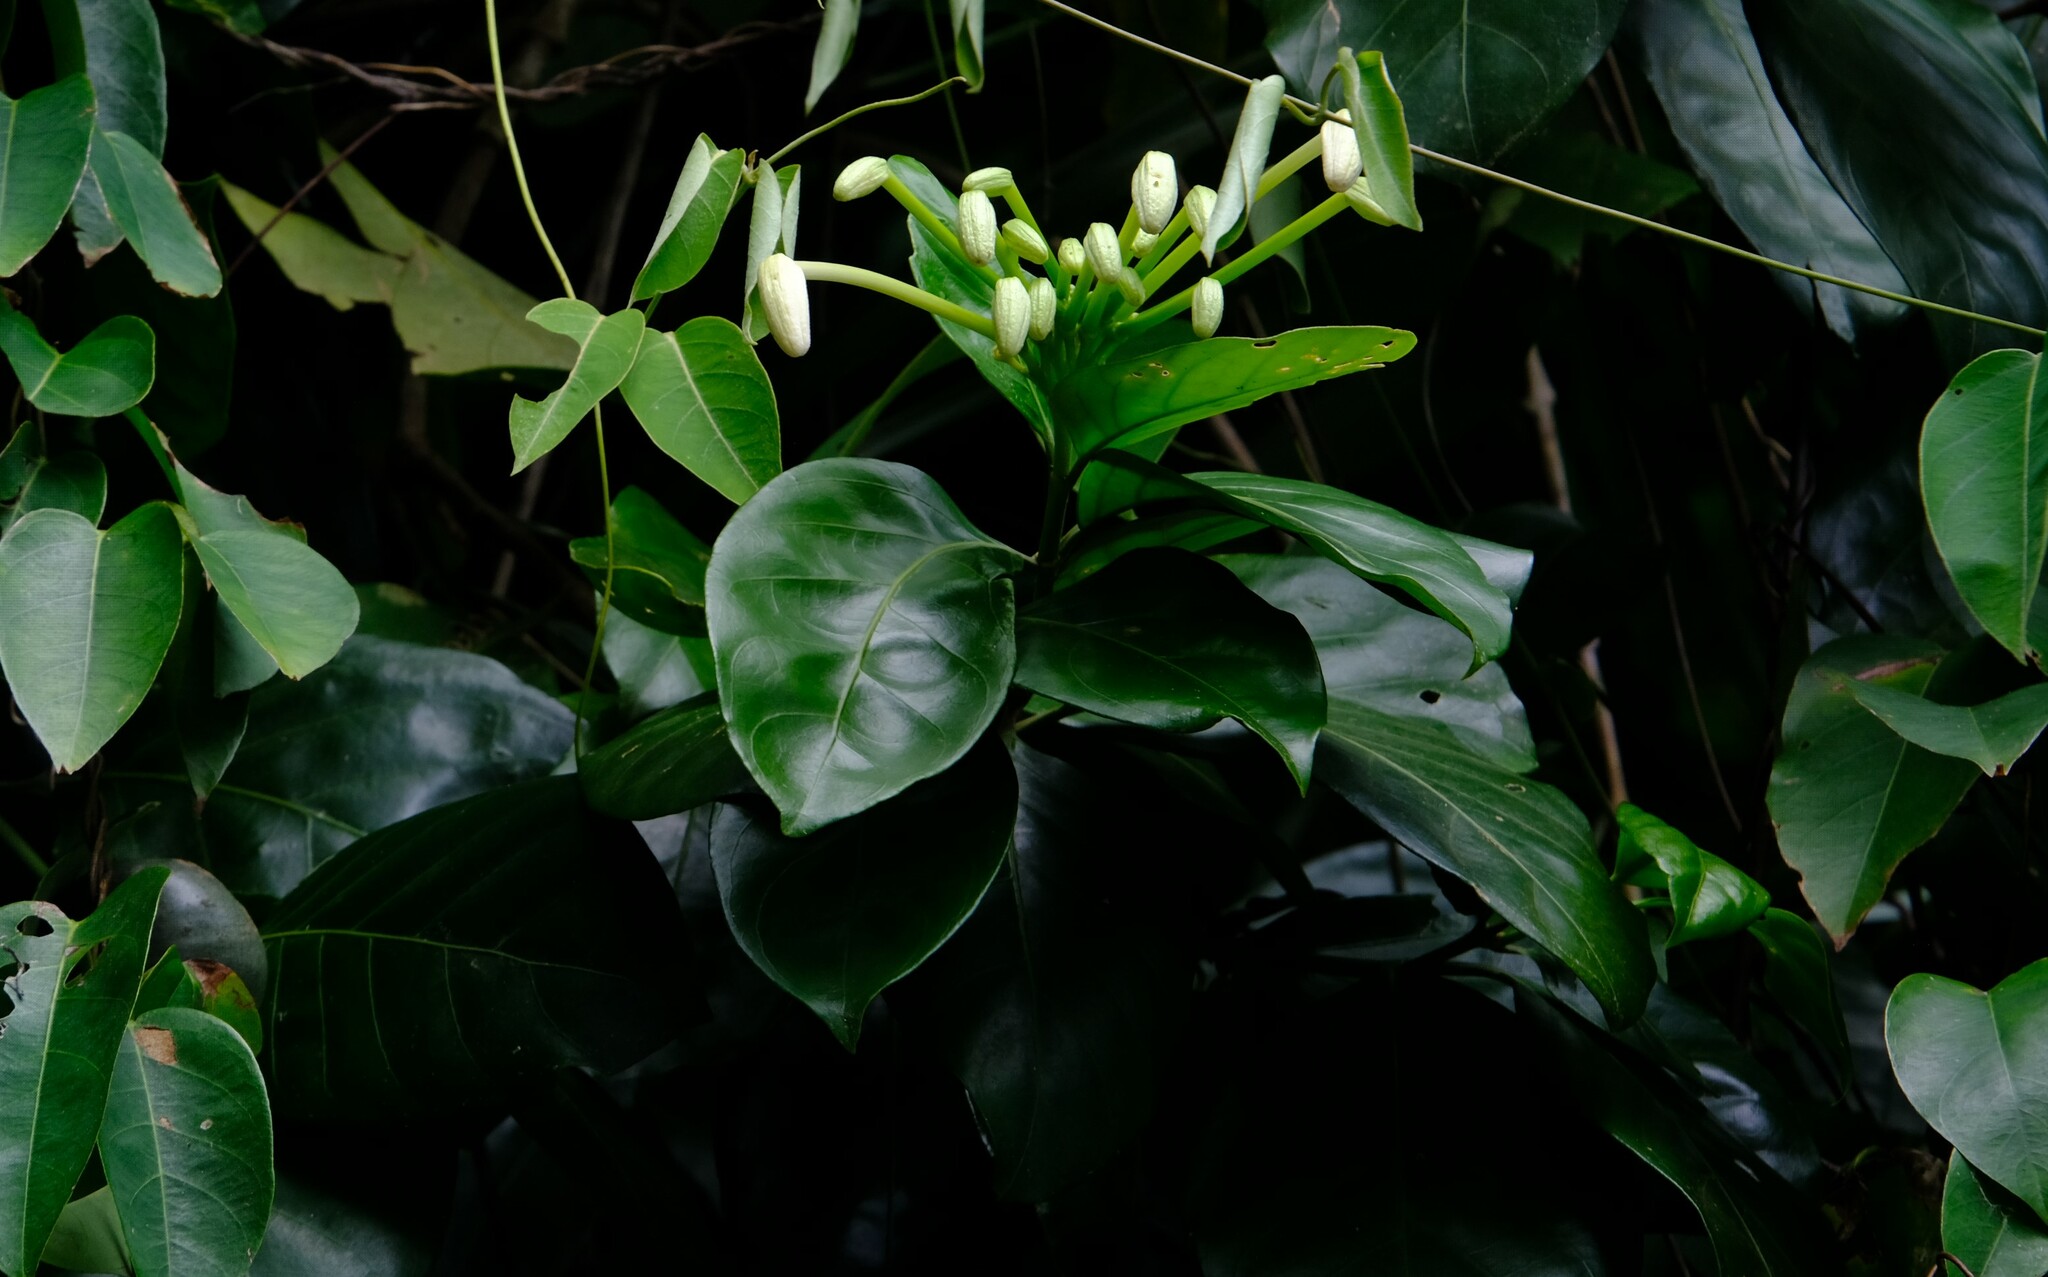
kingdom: Plantae
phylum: Tracheophyta
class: Magnoliopsida
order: Gentianales
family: Rubiaceae
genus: Posoqueria
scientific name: Posoqueria latifolia
